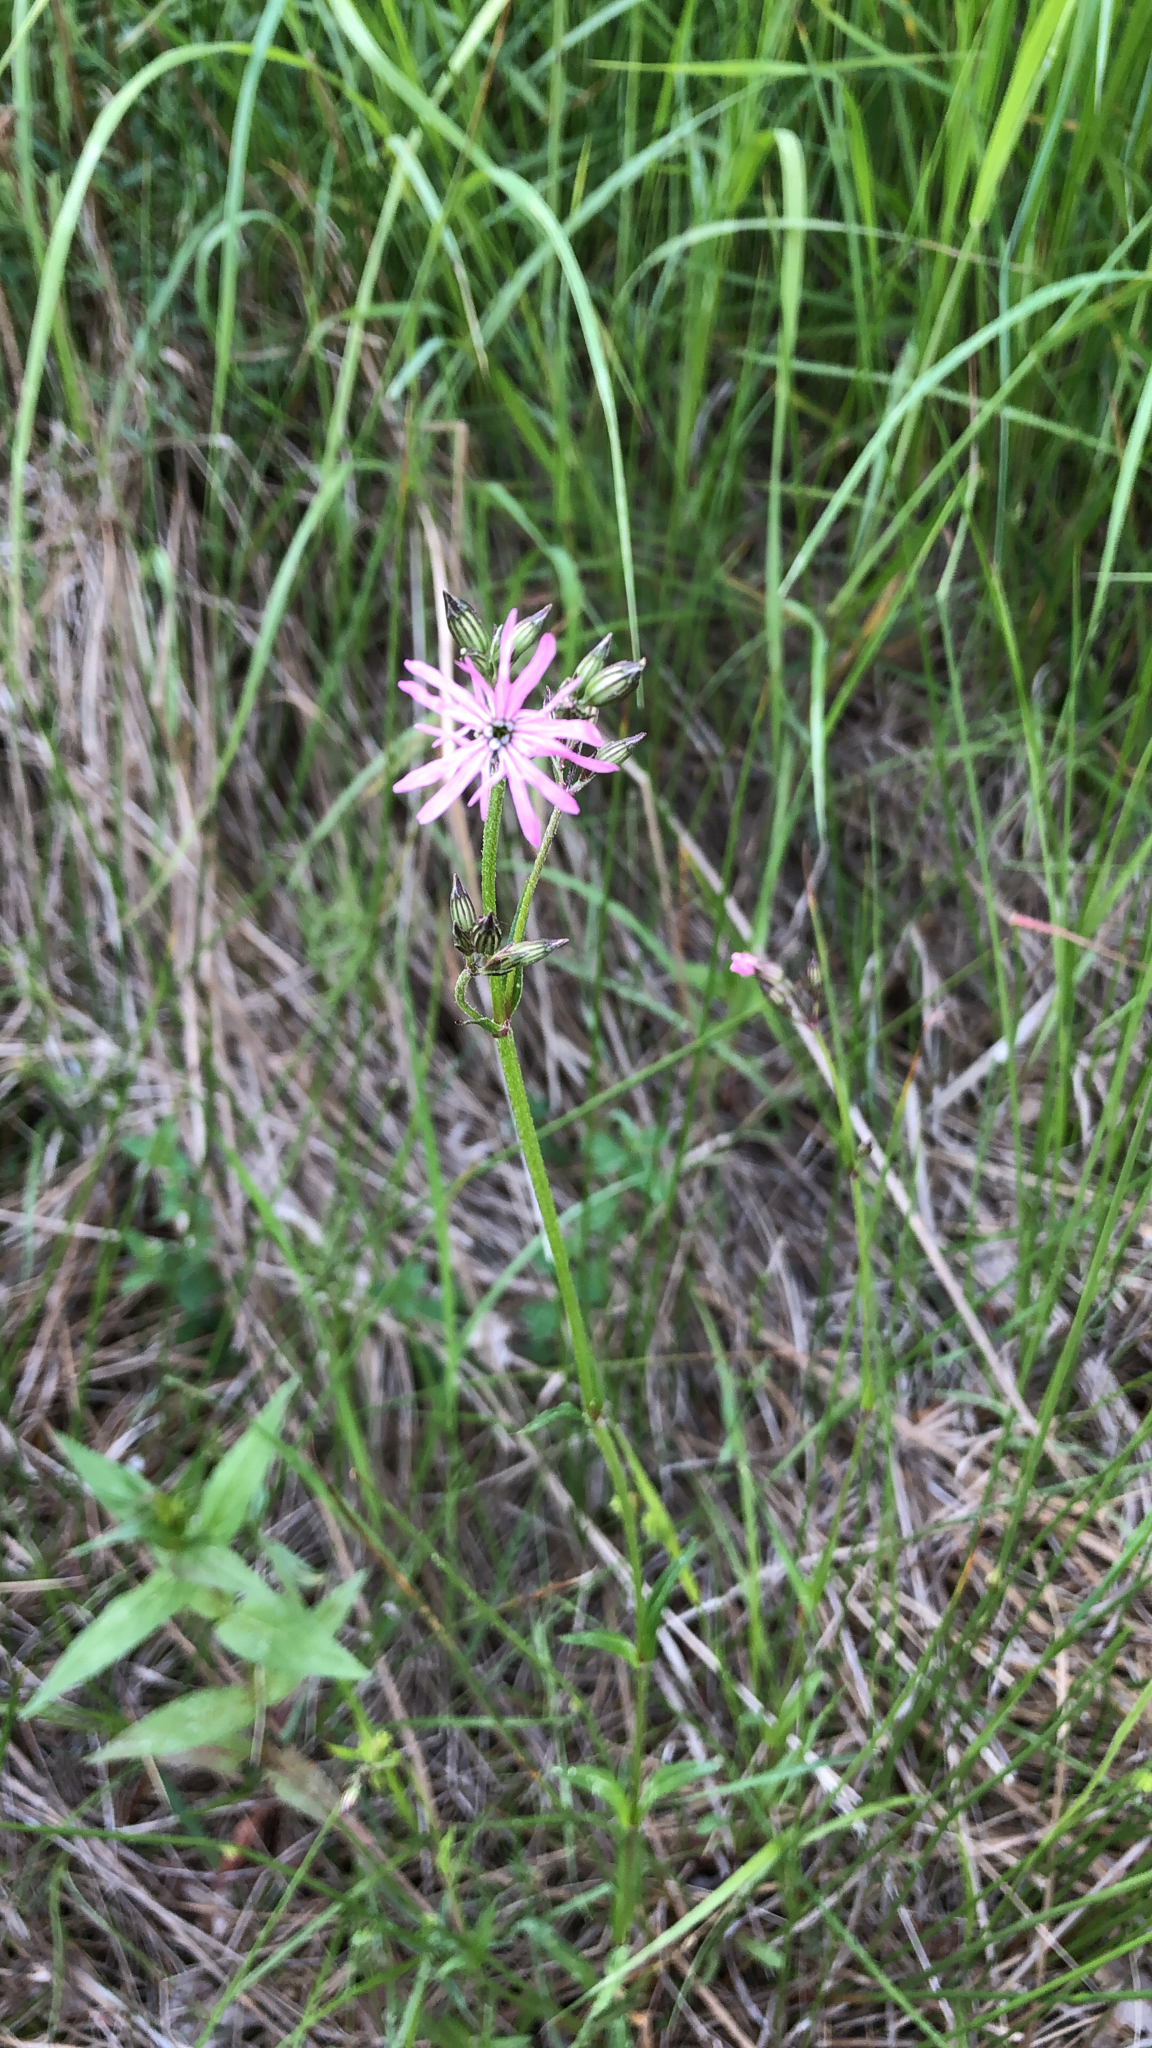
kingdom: Plantae
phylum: Tracheophyta
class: Magnoliopsida
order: Caryophyllales
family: Caryophyllaceae
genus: Silene
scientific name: Silene flos-cuculi
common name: Ragged-robin
